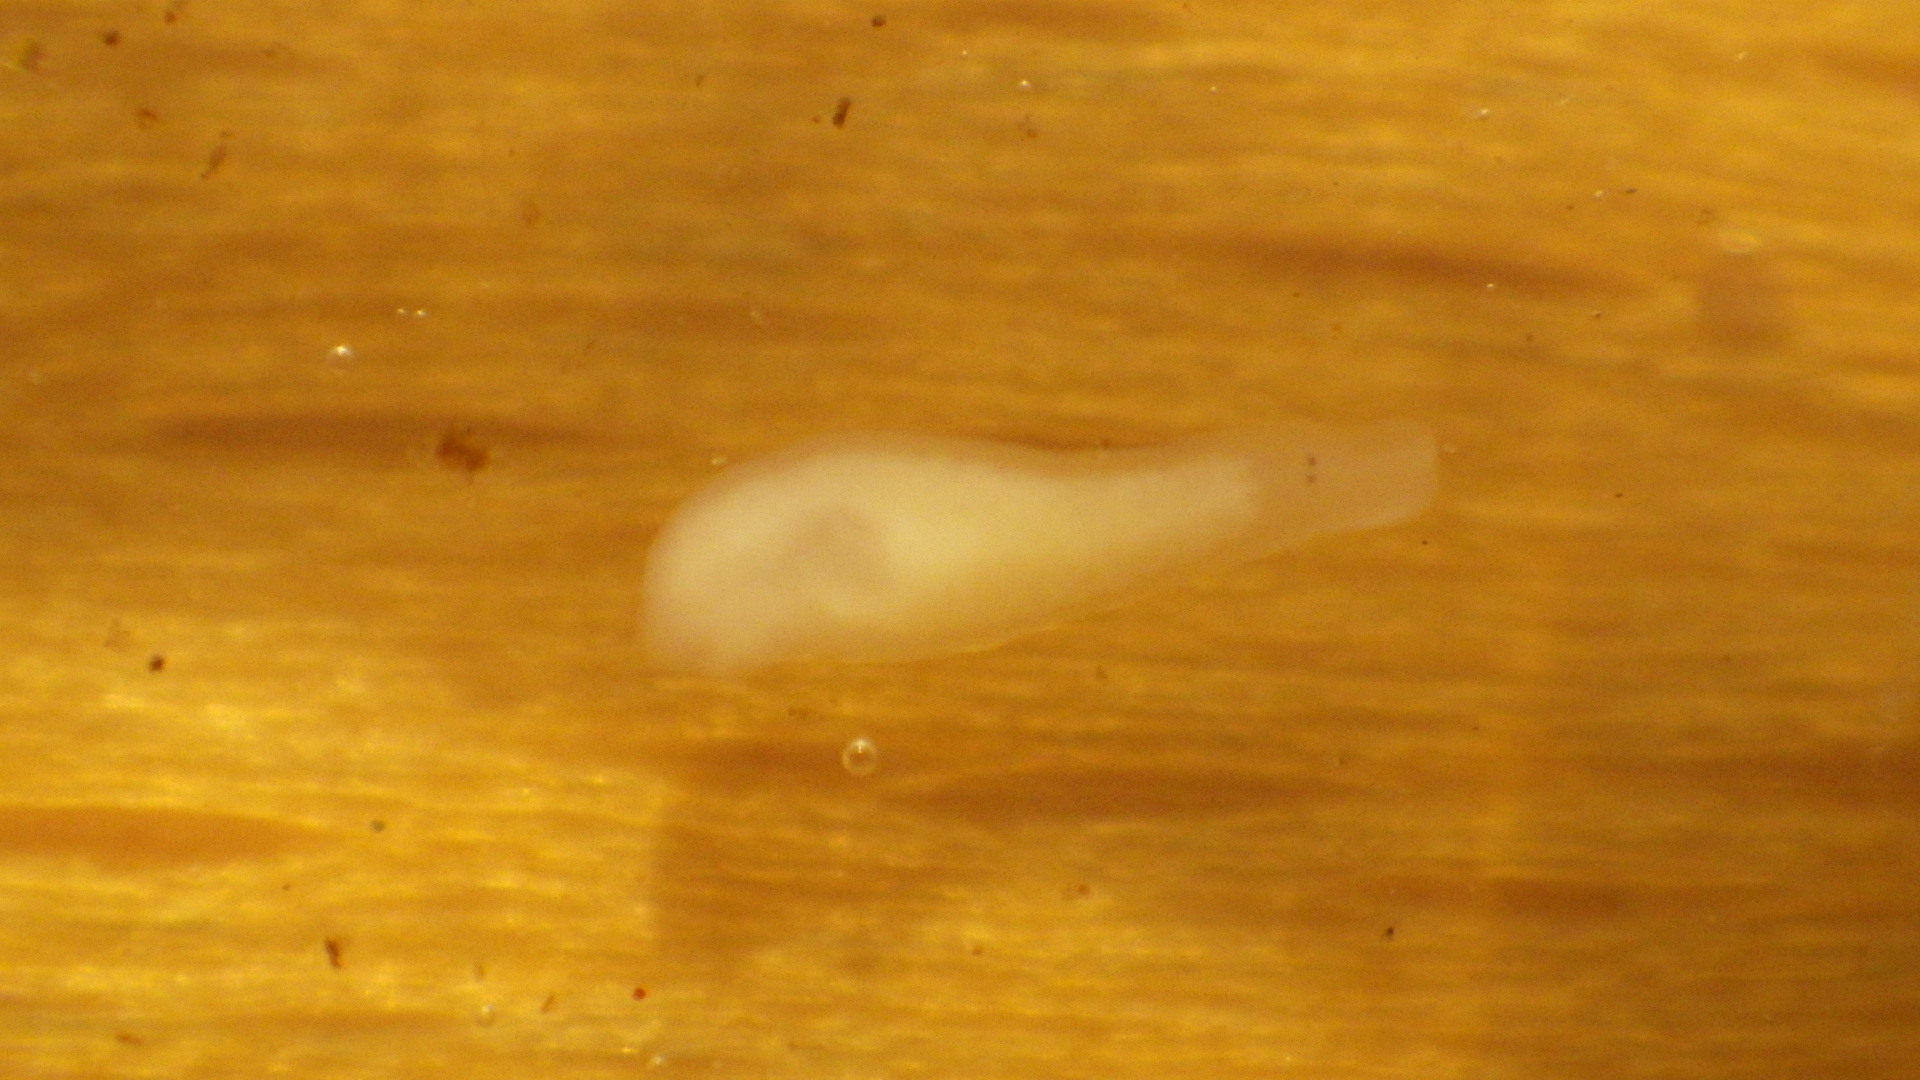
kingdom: Animalia
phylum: Platyhelminthes
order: Tricladida
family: Planariidae
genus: Phagocata
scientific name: Phagocata morgani
